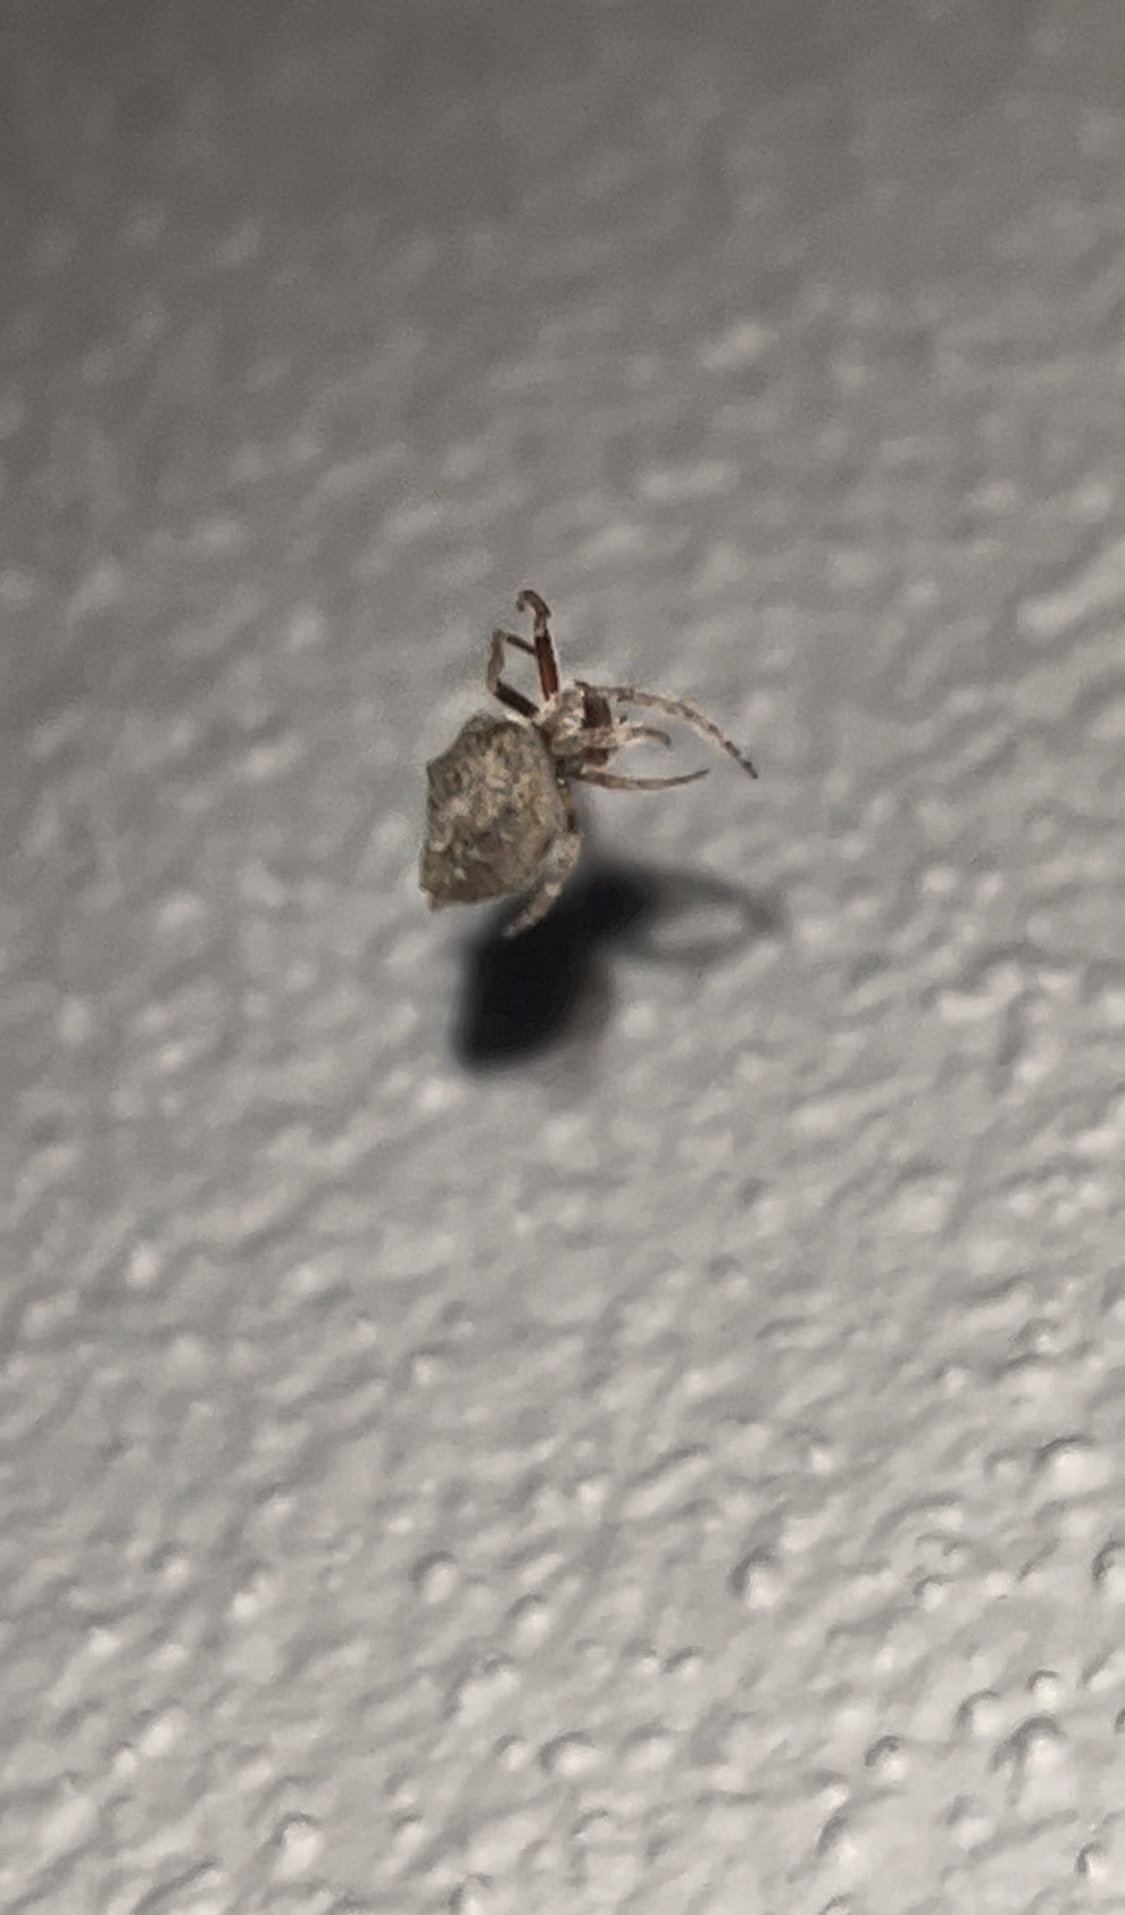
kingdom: Animalia
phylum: Arthropoda
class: Arachnida
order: Araneae
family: Araneidae
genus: Eriophora
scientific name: Eriophora pustulosa
